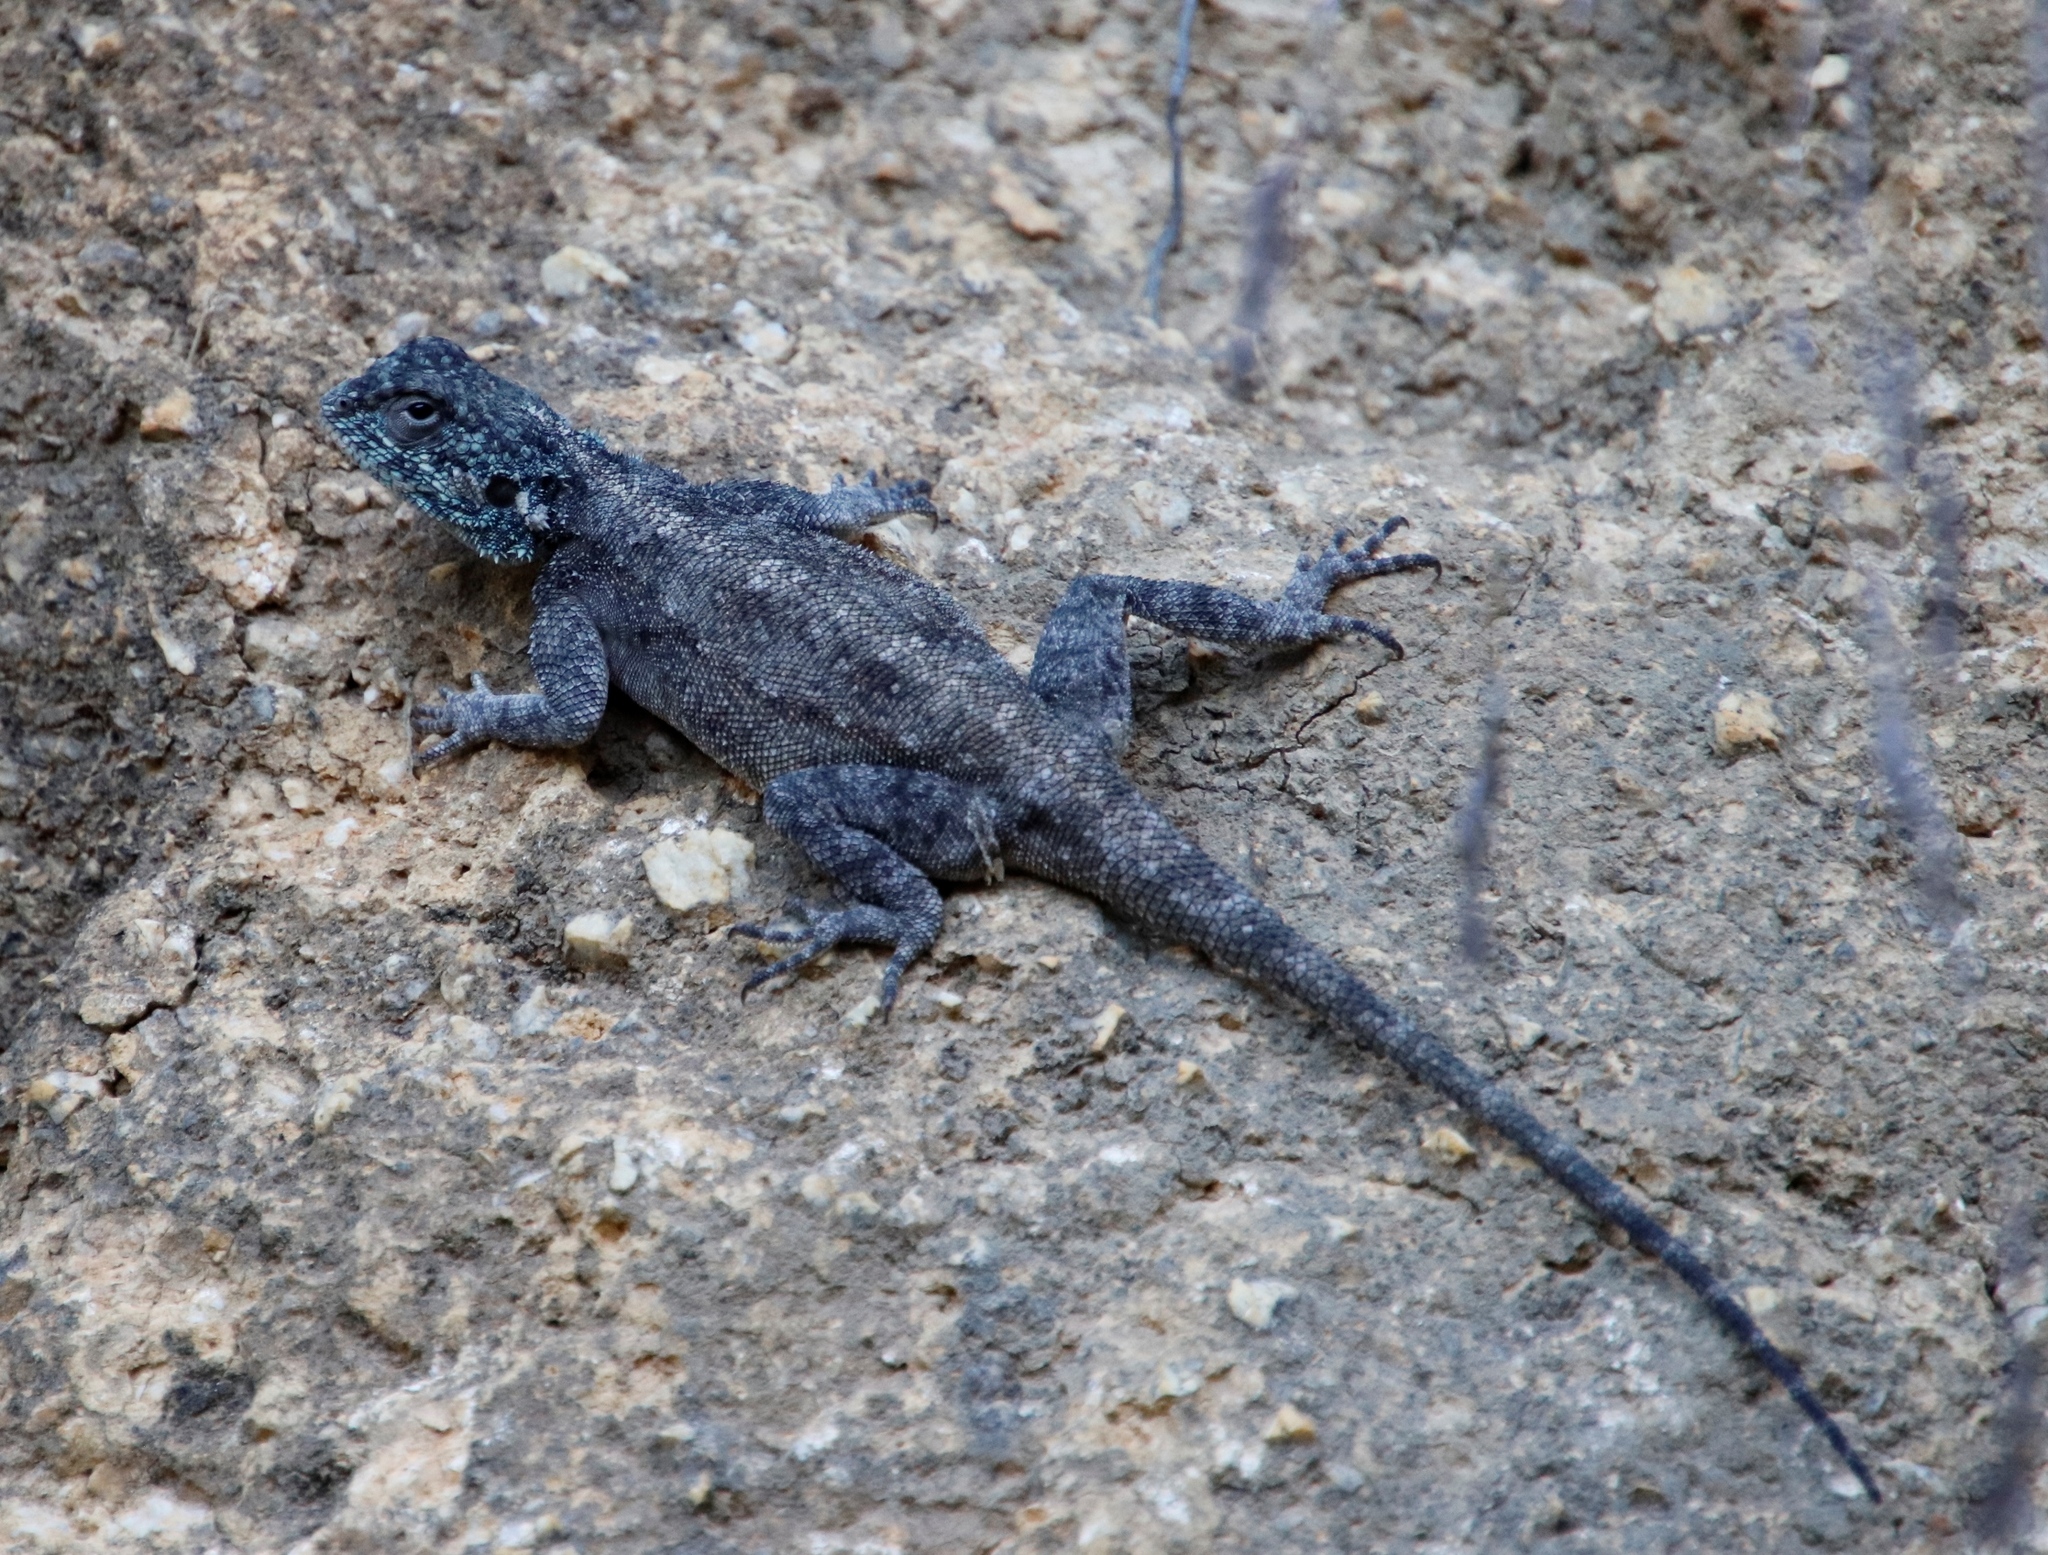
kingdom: Animalia
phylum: Chordata
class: Squamata
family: Agamidae
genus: Agama
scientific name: Agama atra
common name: Southern african rock agama
